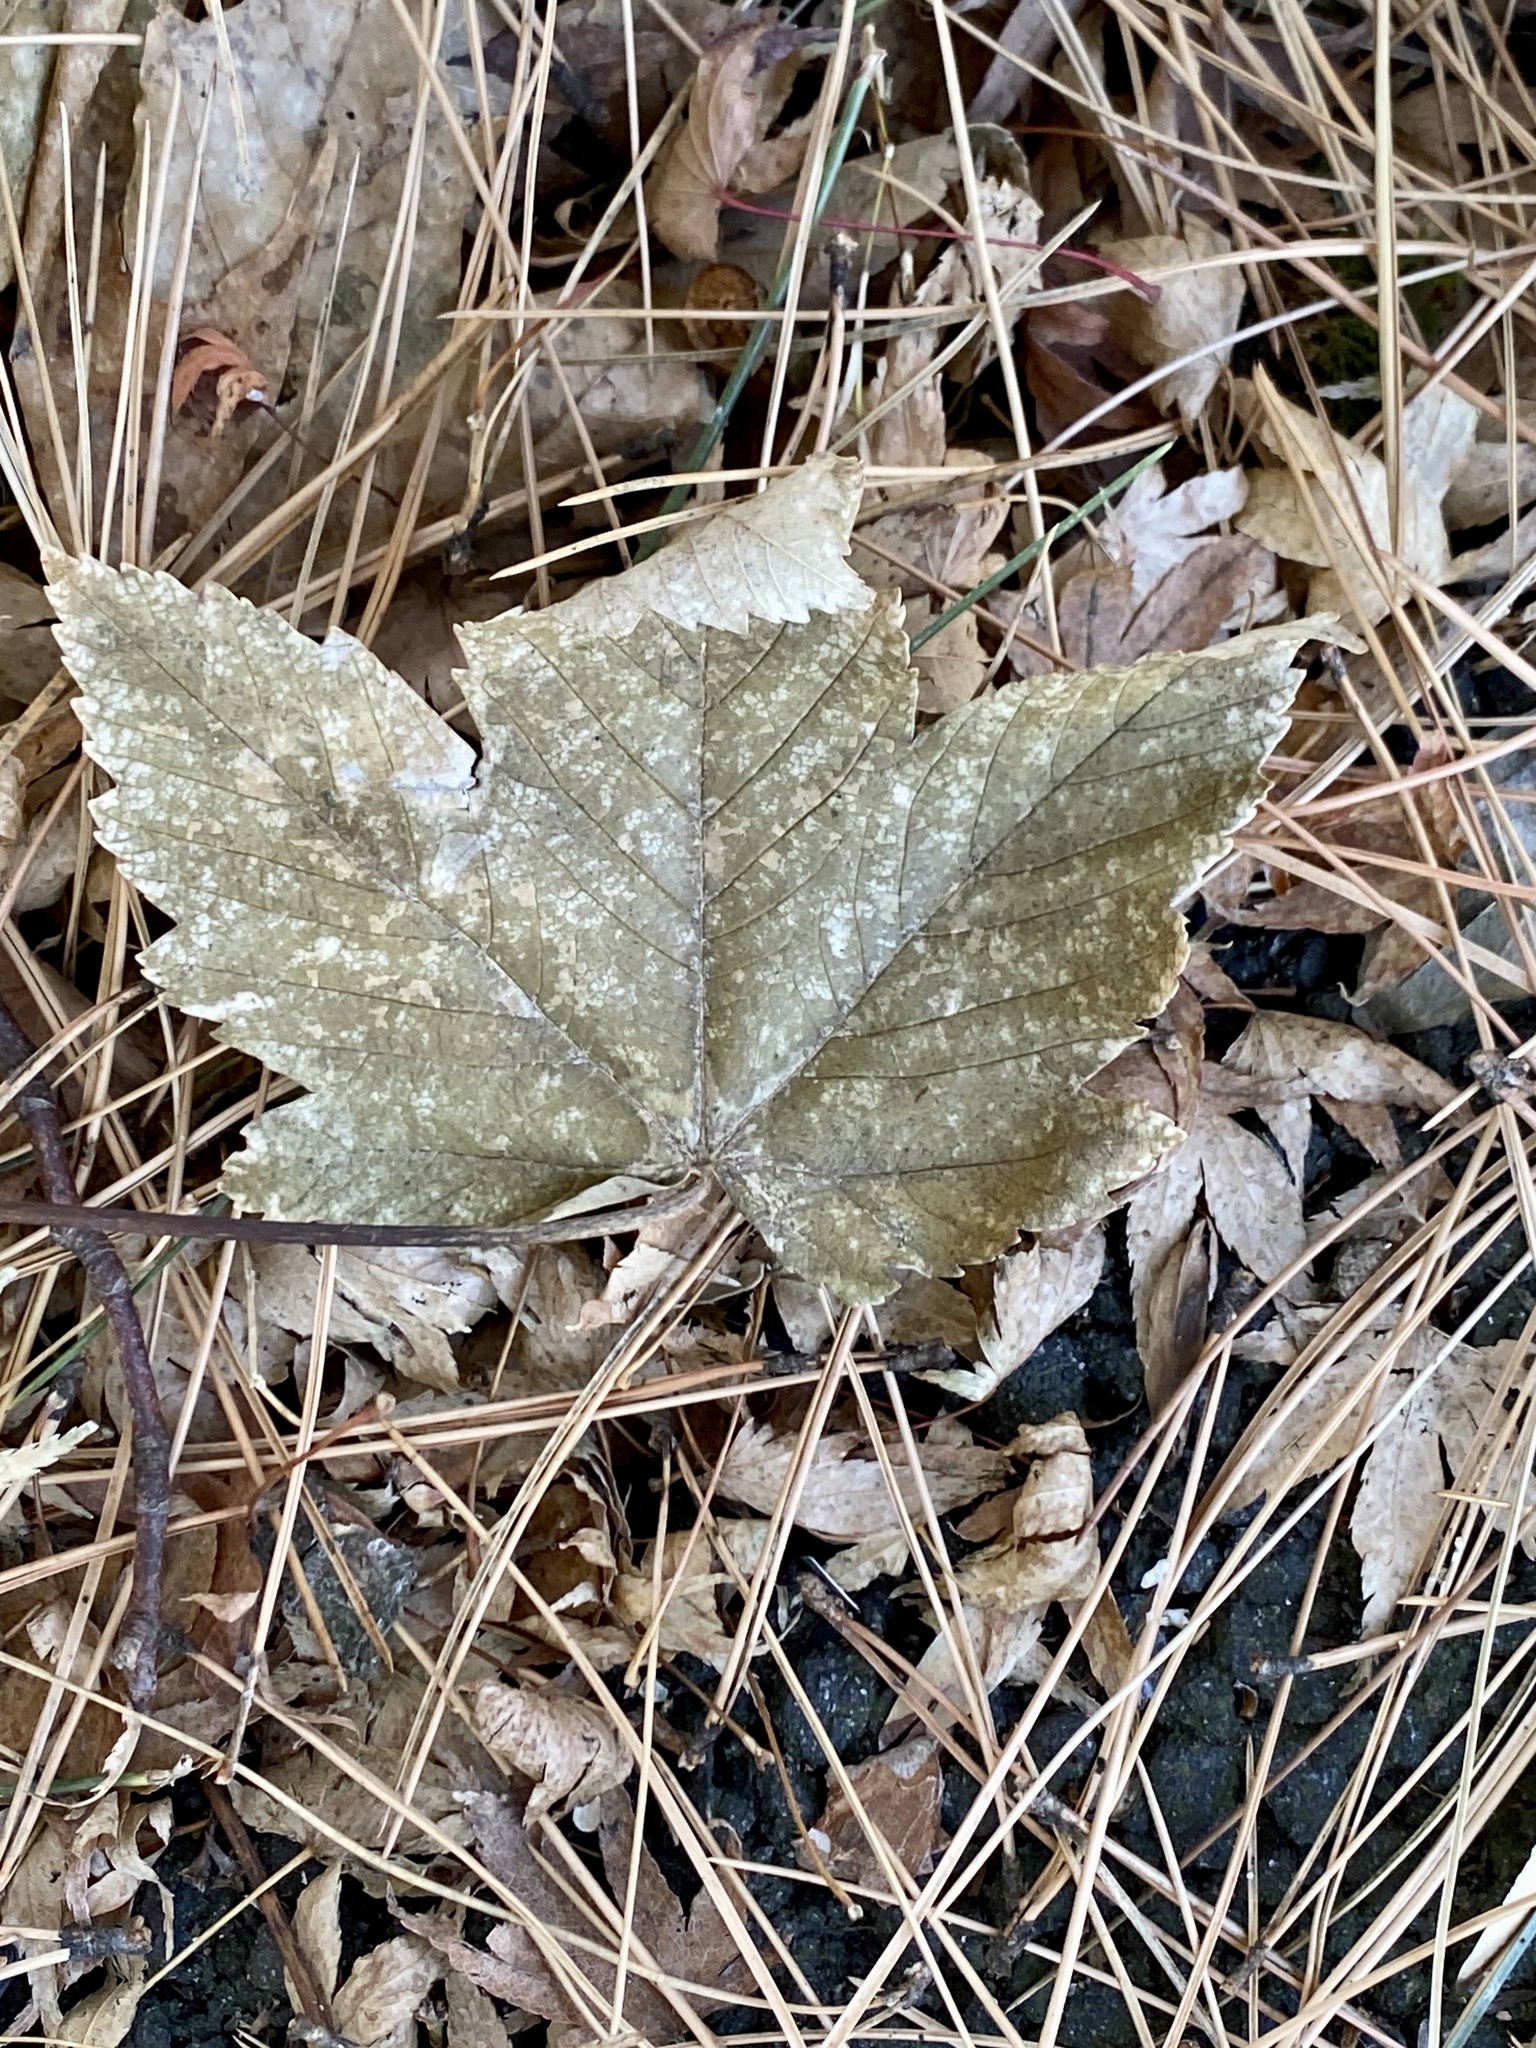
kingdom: Plantae
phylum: Tracheophyta
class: Magnoliopsida
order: Sapindales
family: Sapindaceae
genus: Acer
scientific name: Acer pseudoplatanus
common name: Sycamore
